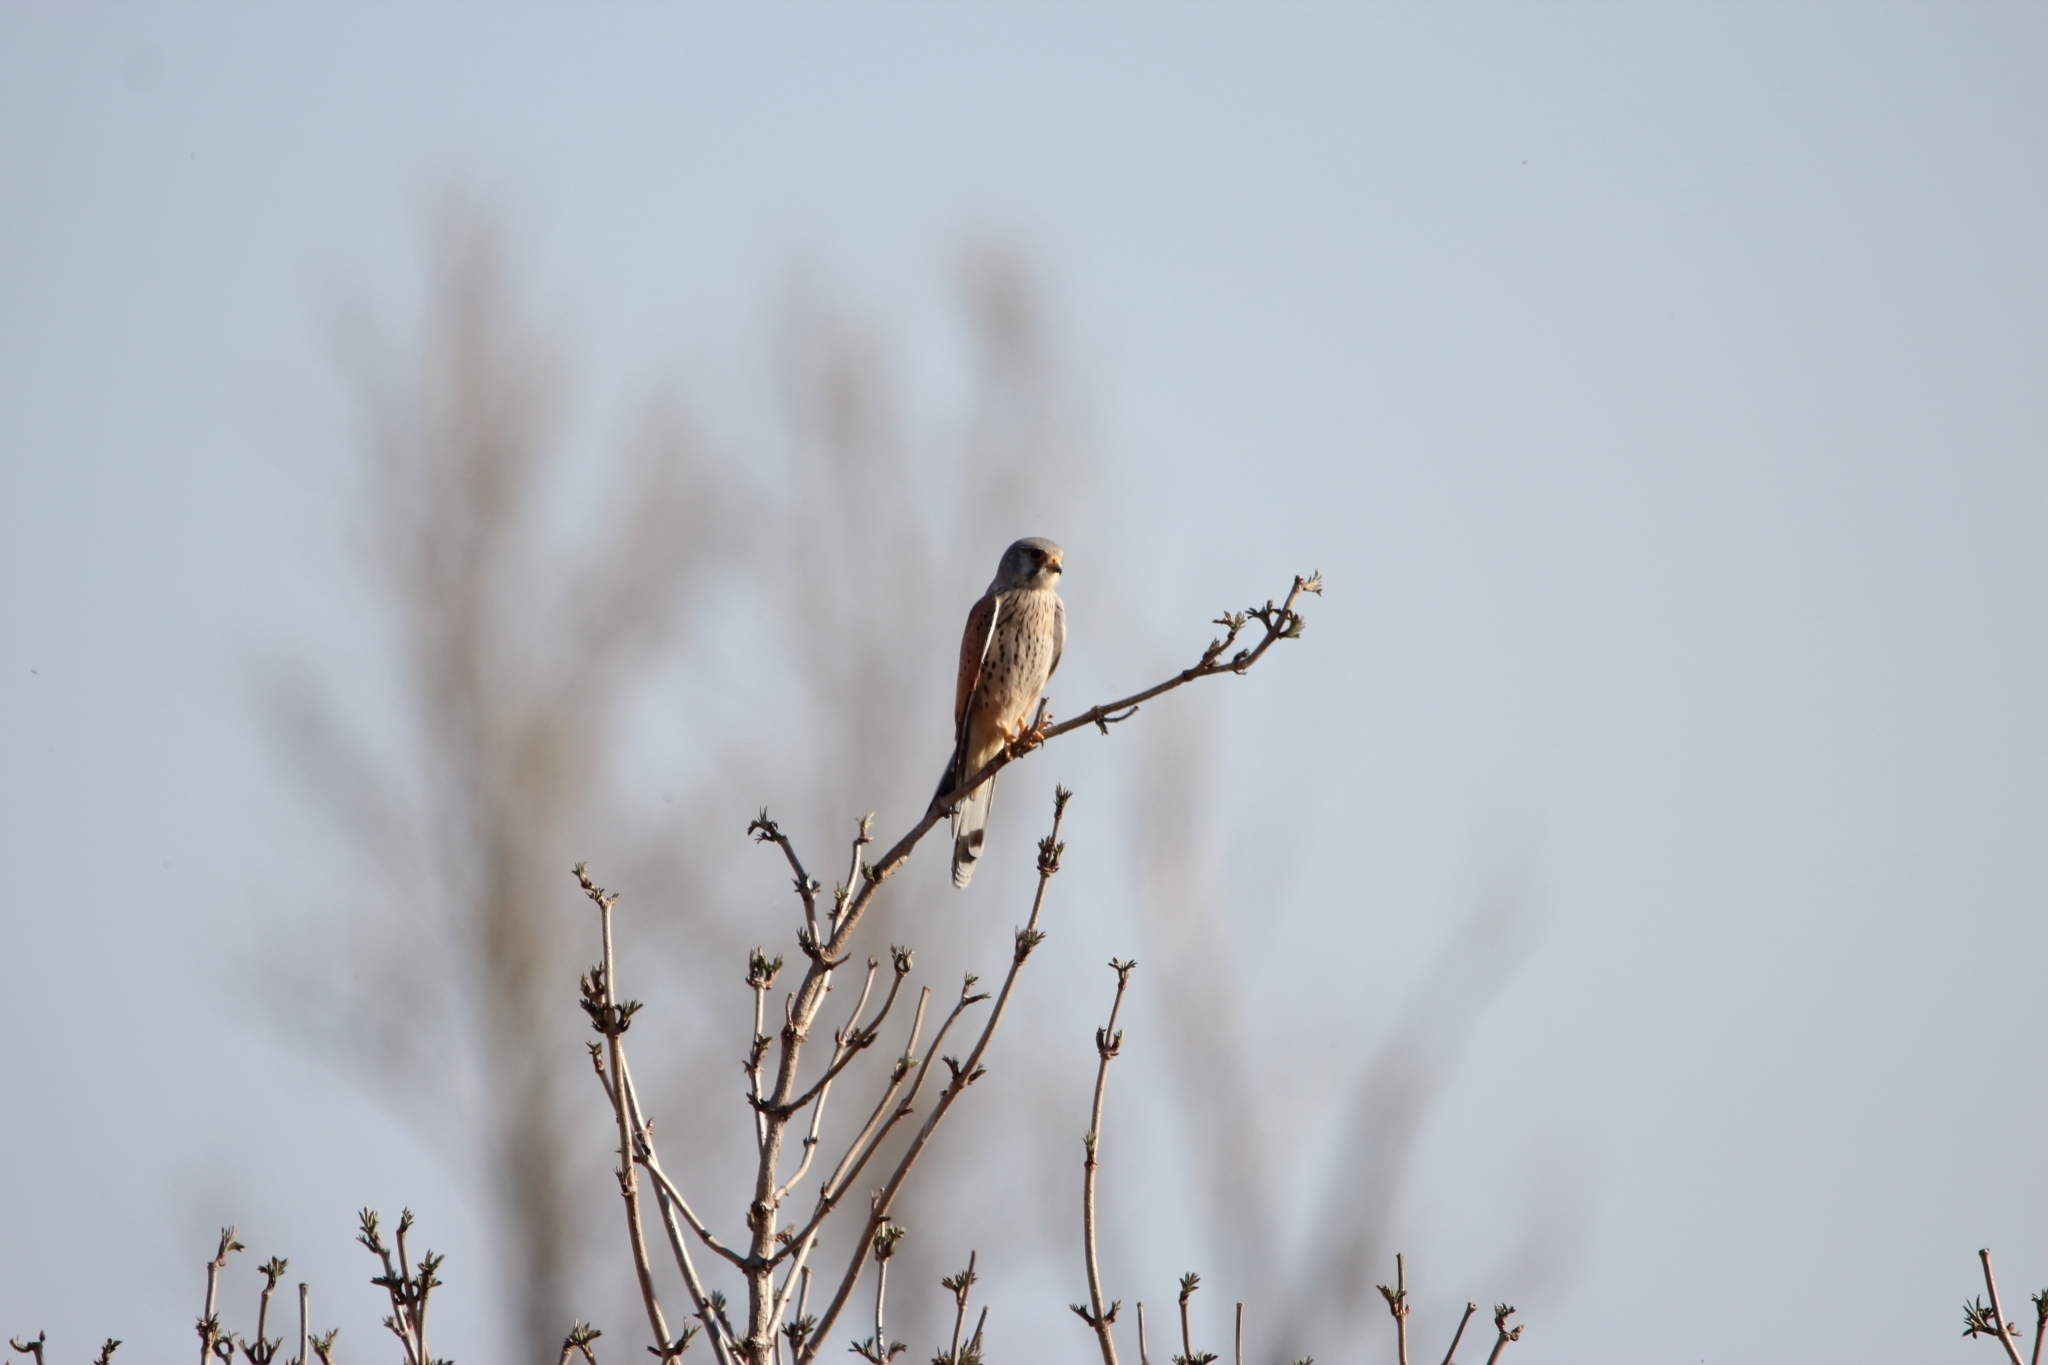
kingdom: Animalia
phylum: Chordata
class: Aves
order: Falconiformes
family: Falconidae
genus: Falco
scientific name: Falco tinnunculus
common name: Common kestrel
